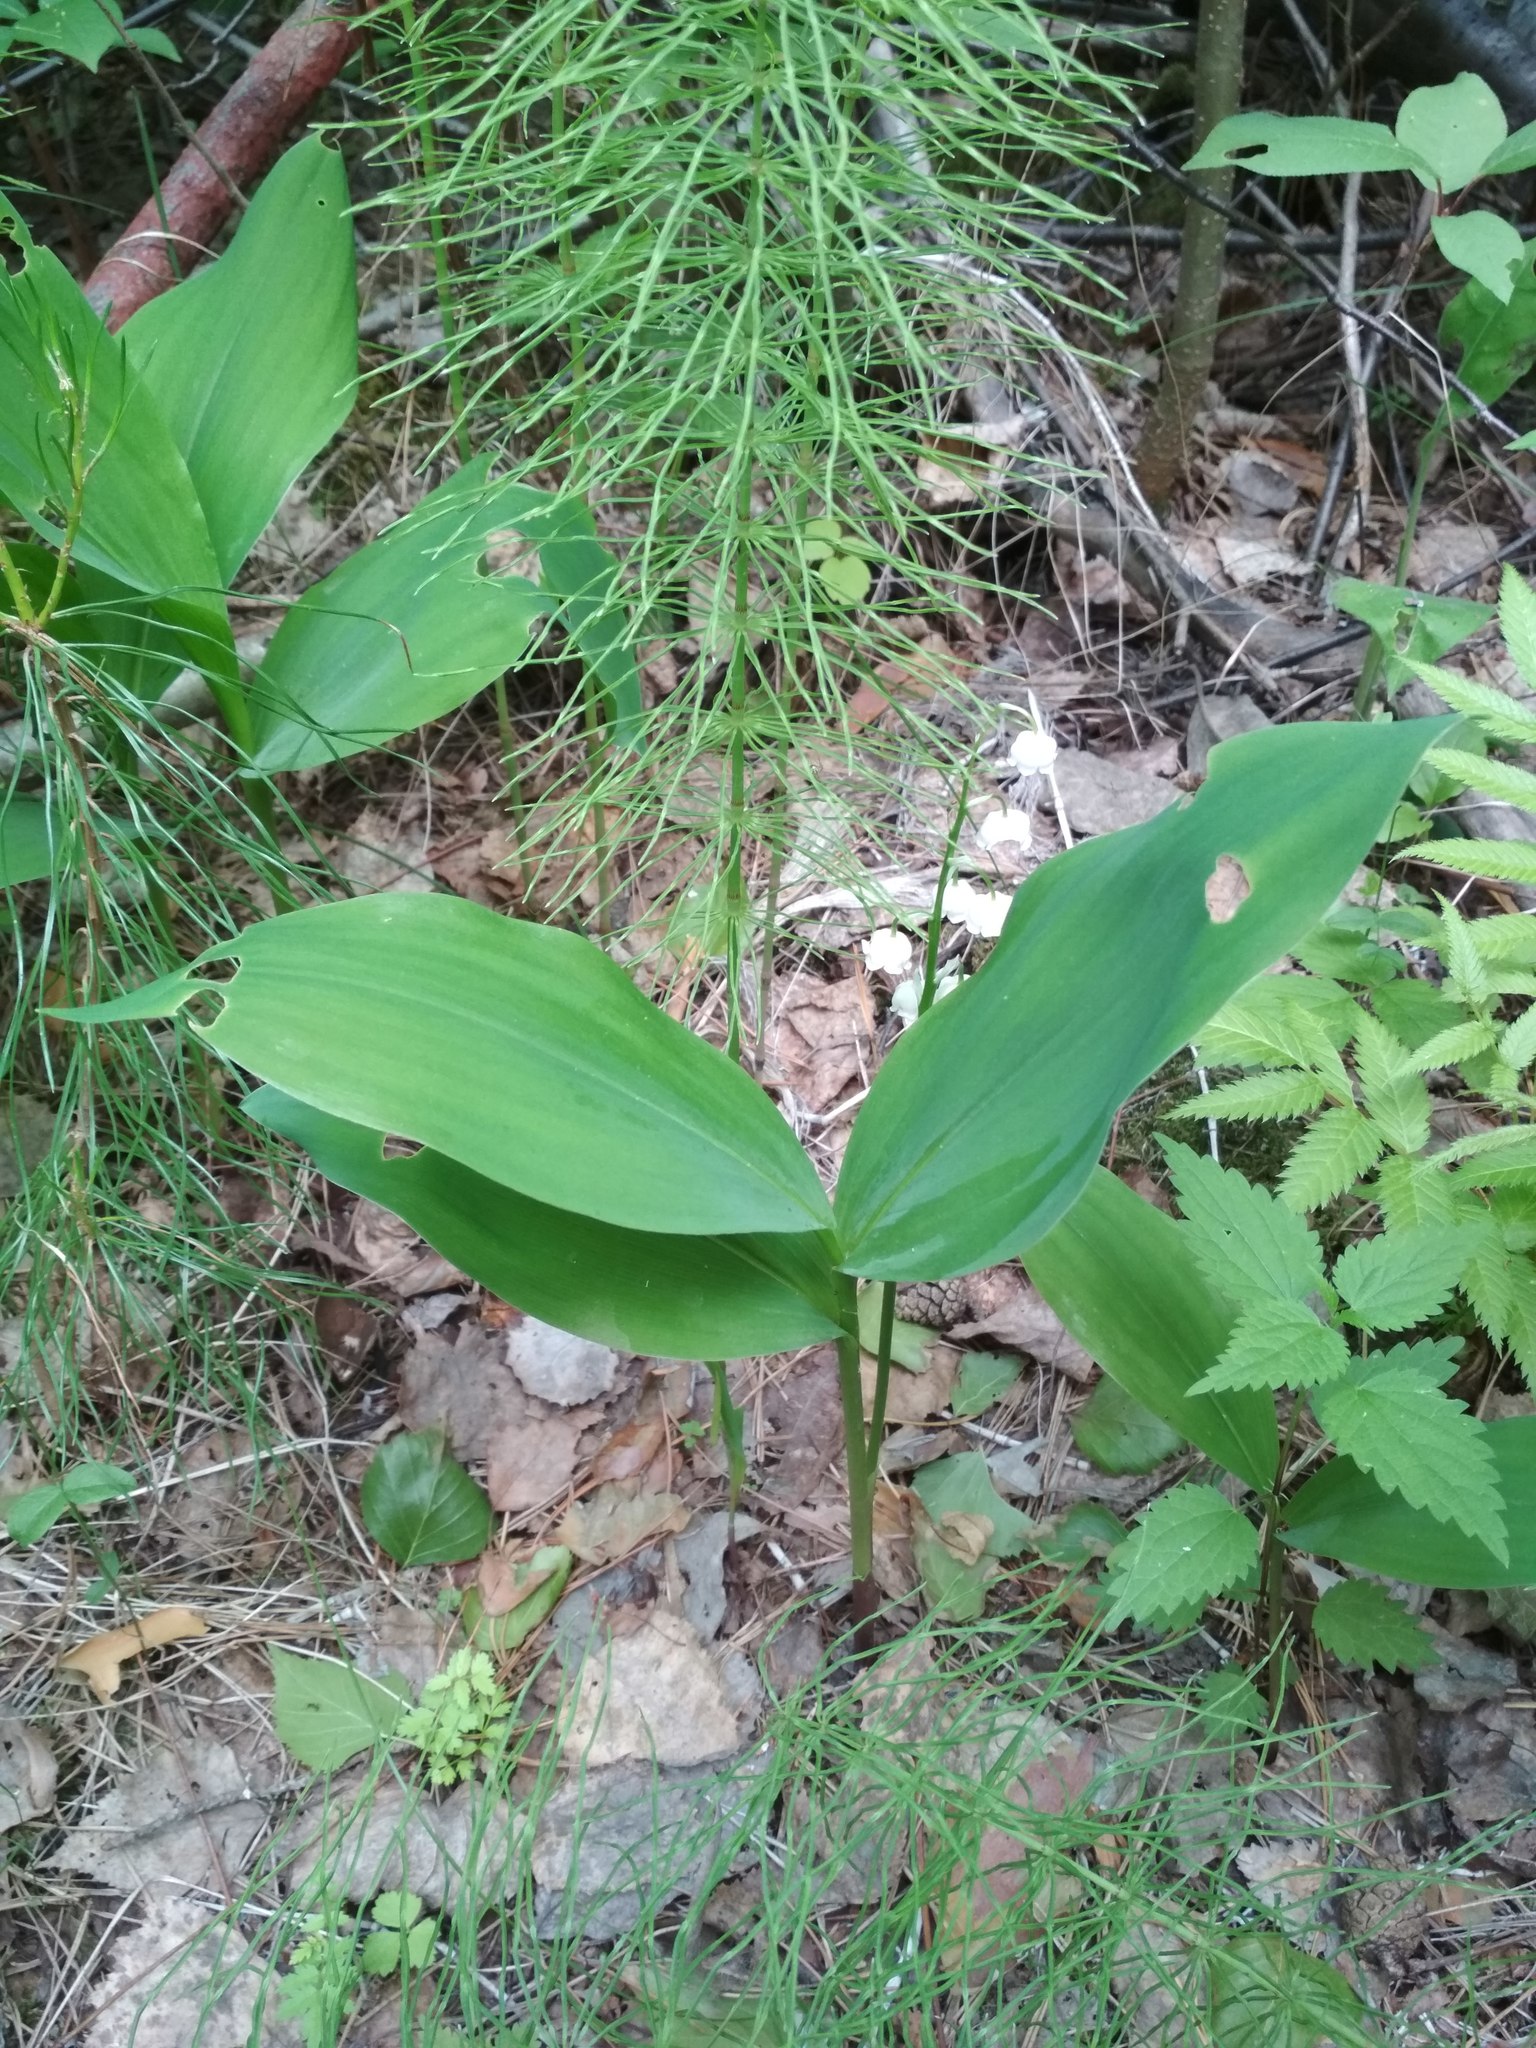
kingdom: Plantae
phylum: Tracheophyta
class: Liliopsida
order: Asparagales
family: Asparagaceae
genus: Convallaria
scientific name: Convallaria majalis
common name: Lily-of-the-valley
